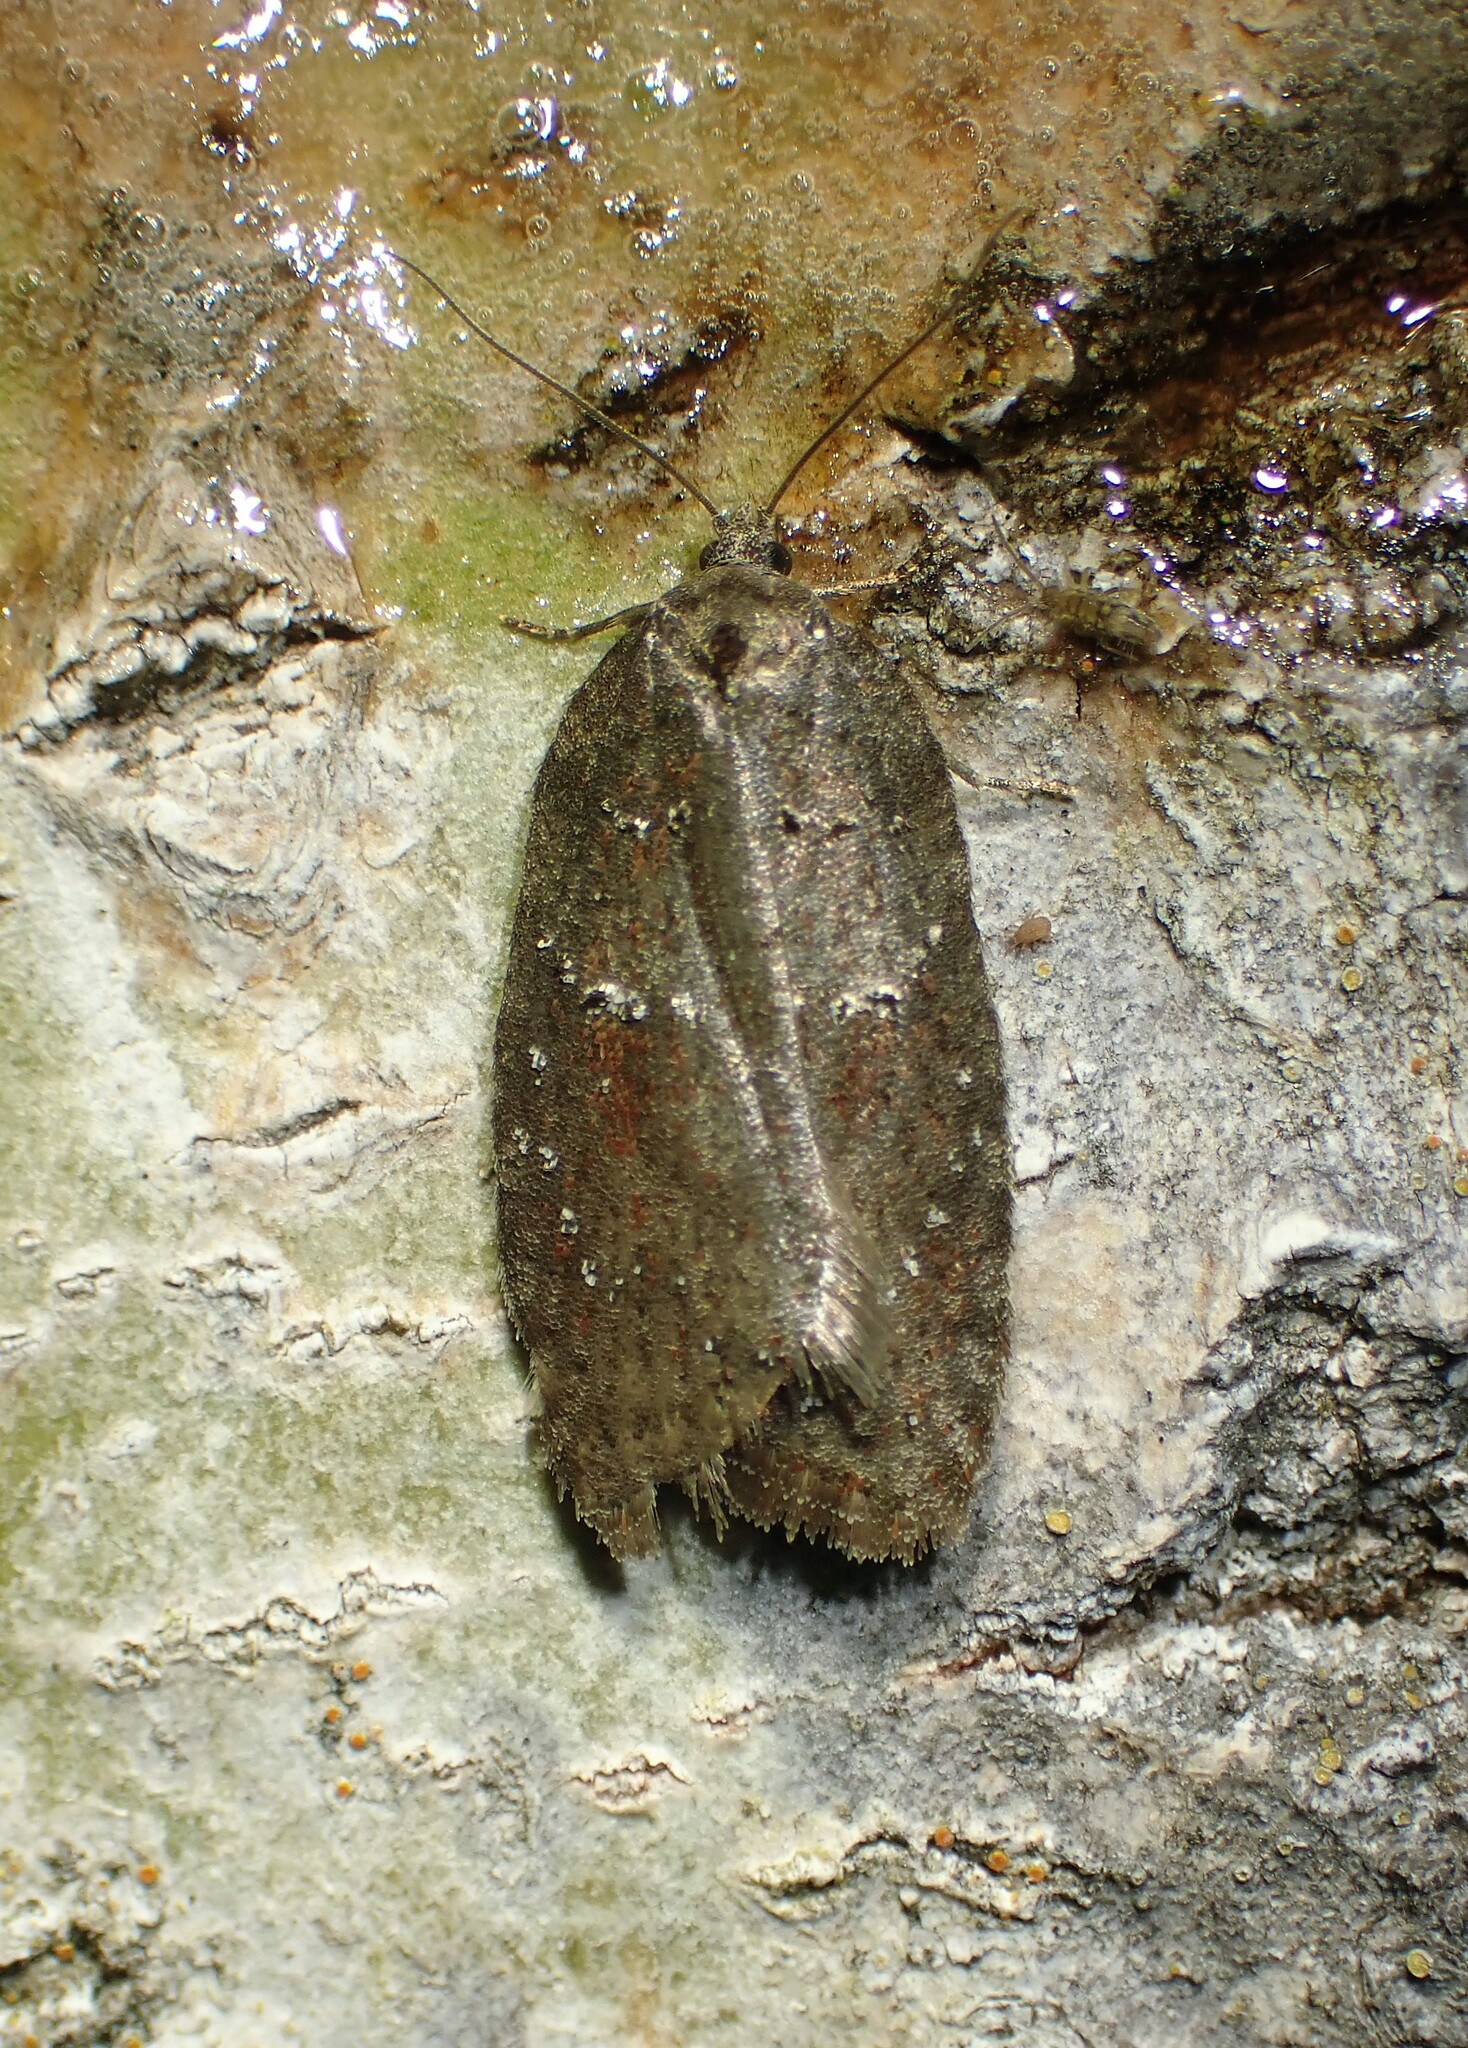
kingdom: Animalia
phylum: Arthropoda
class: Insecta
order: Lepidoptera
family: Tortricidae
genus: Acleris
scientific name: Acleris caliginosana
